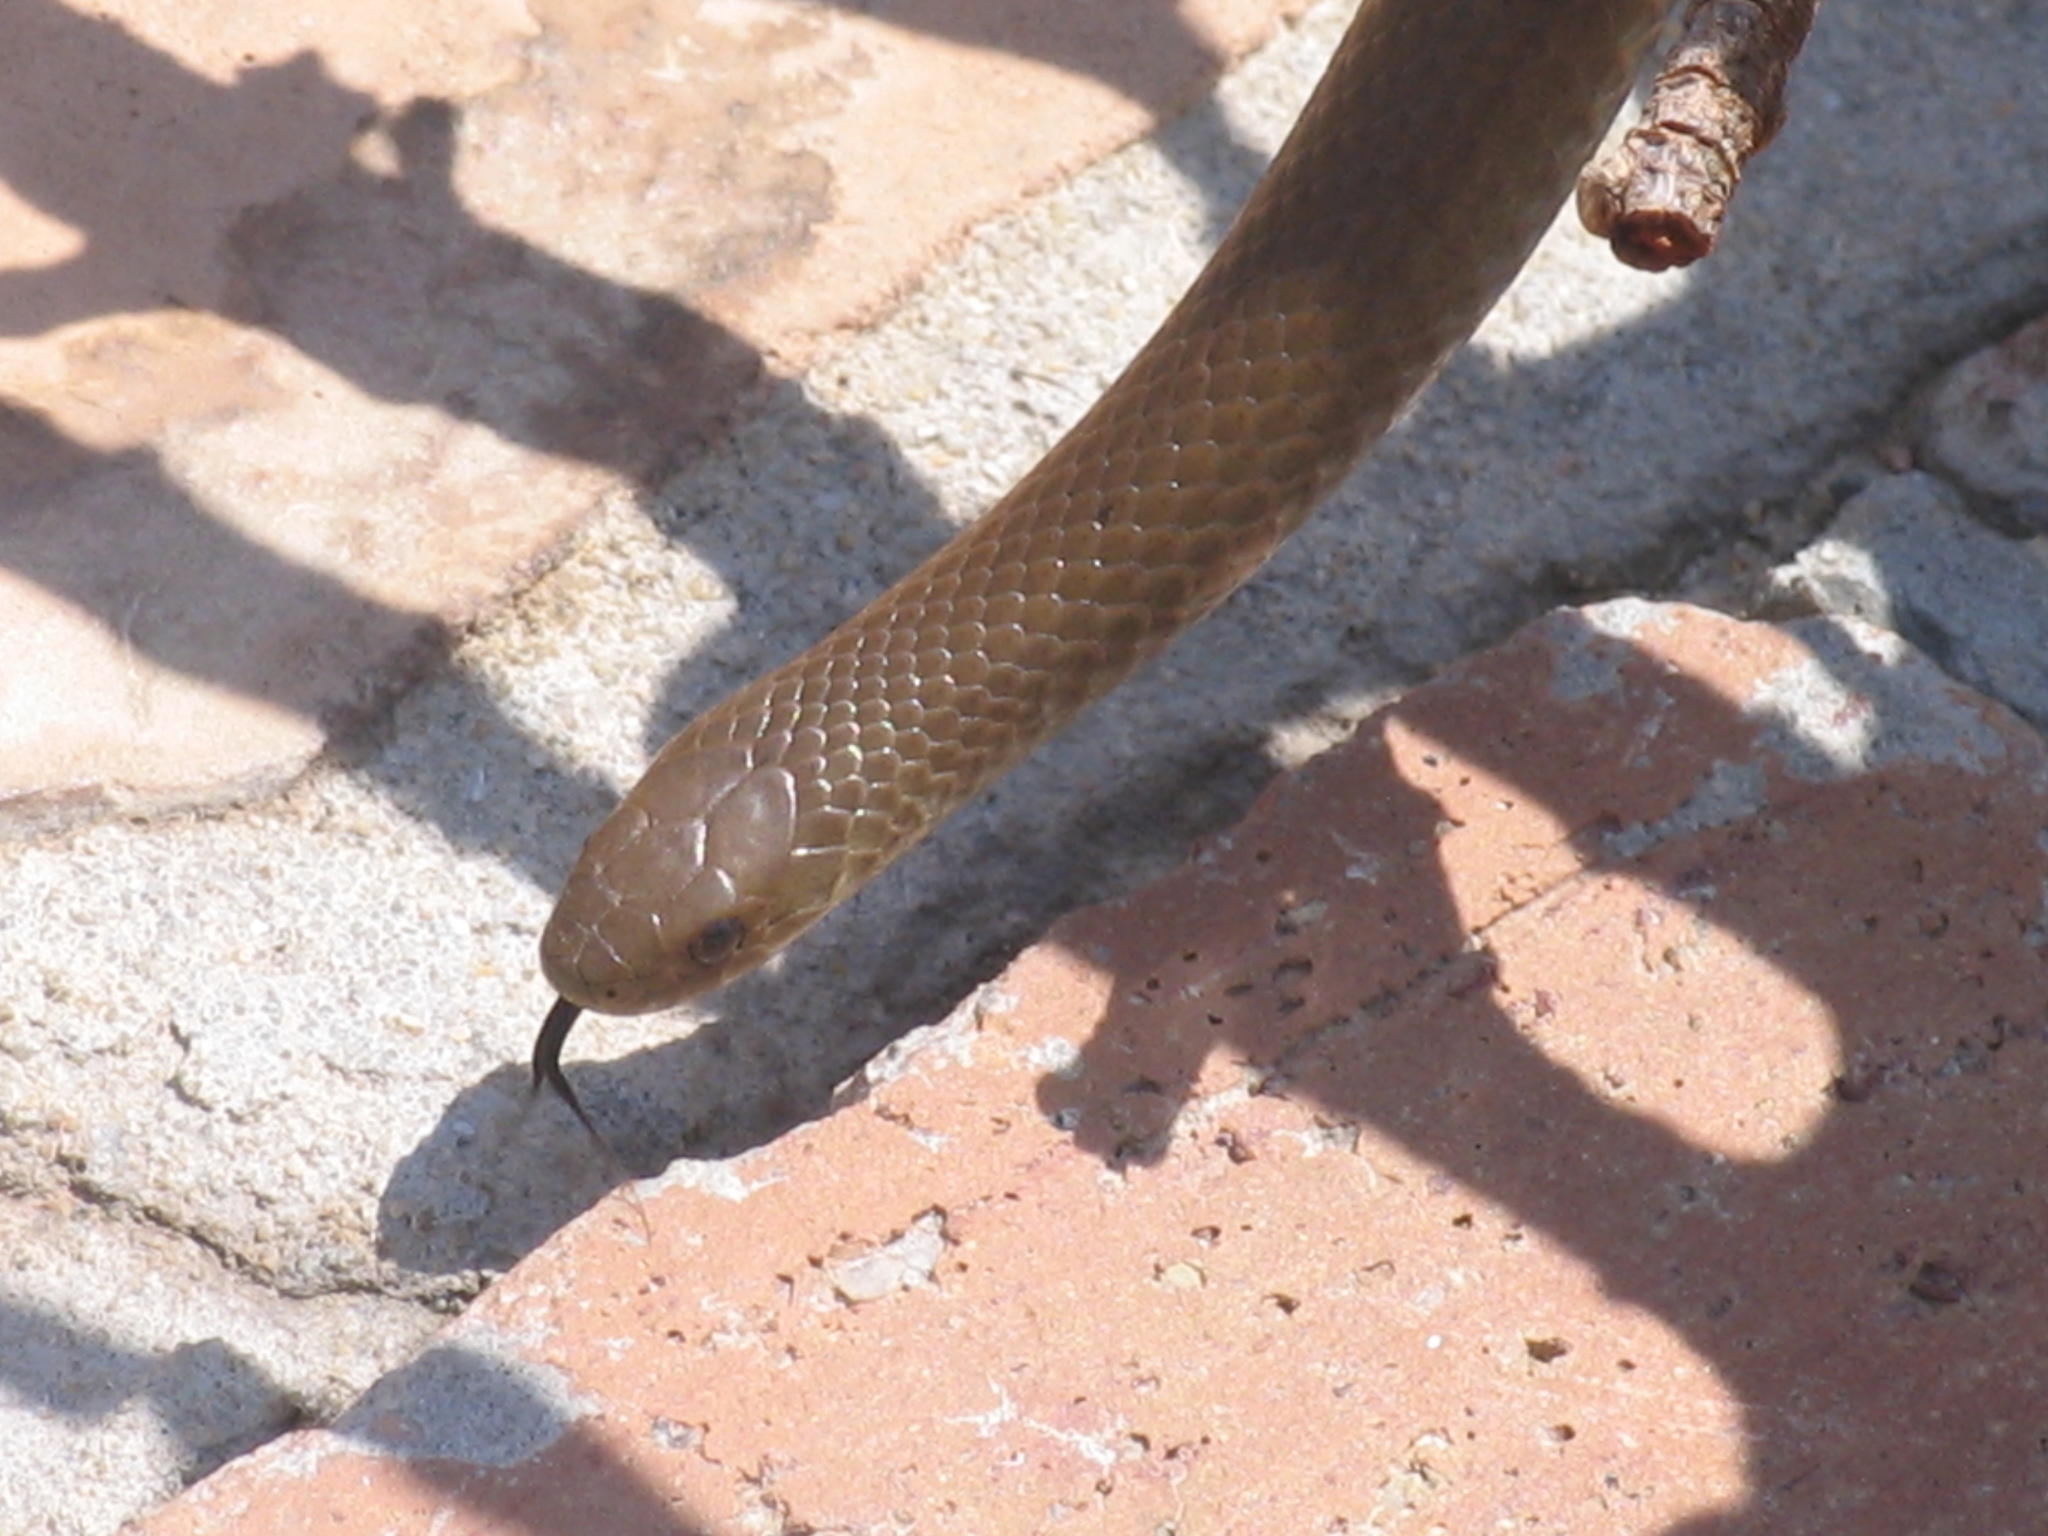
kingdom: Animalia
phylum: Chordata
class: Squamata
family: Pseudoxyrhophiidae
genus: Duberria
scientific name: Duberria lutrix
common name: Common slug eater
